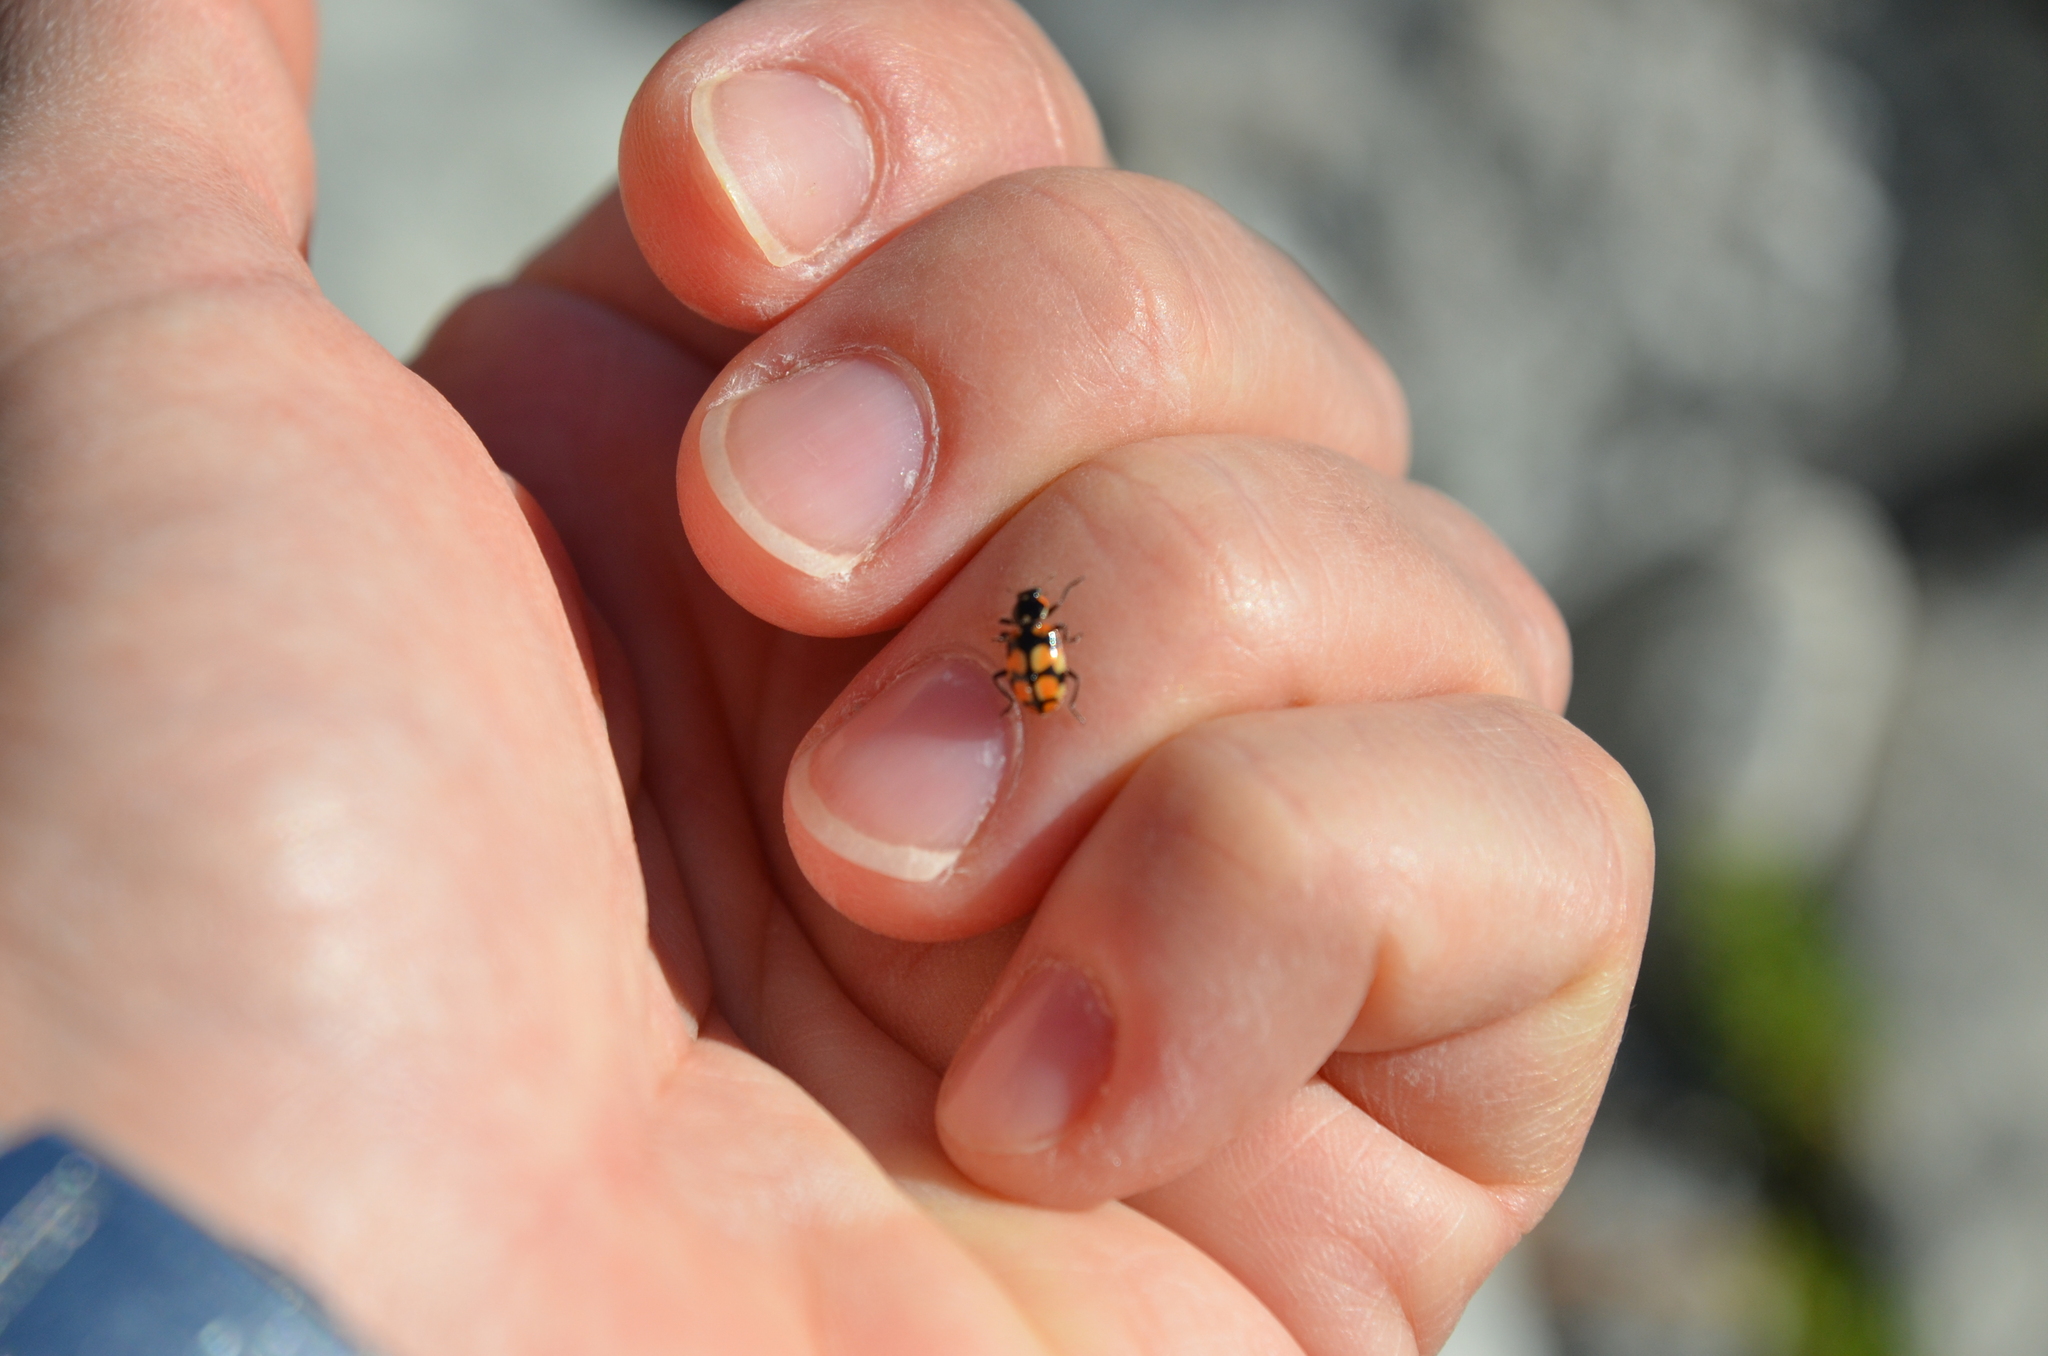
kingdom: Animalia
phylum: Arthropoda
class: Insecta
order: Coleoptera
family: Coccinellidae
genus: Eriopis
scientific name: Eriopis chilensis
